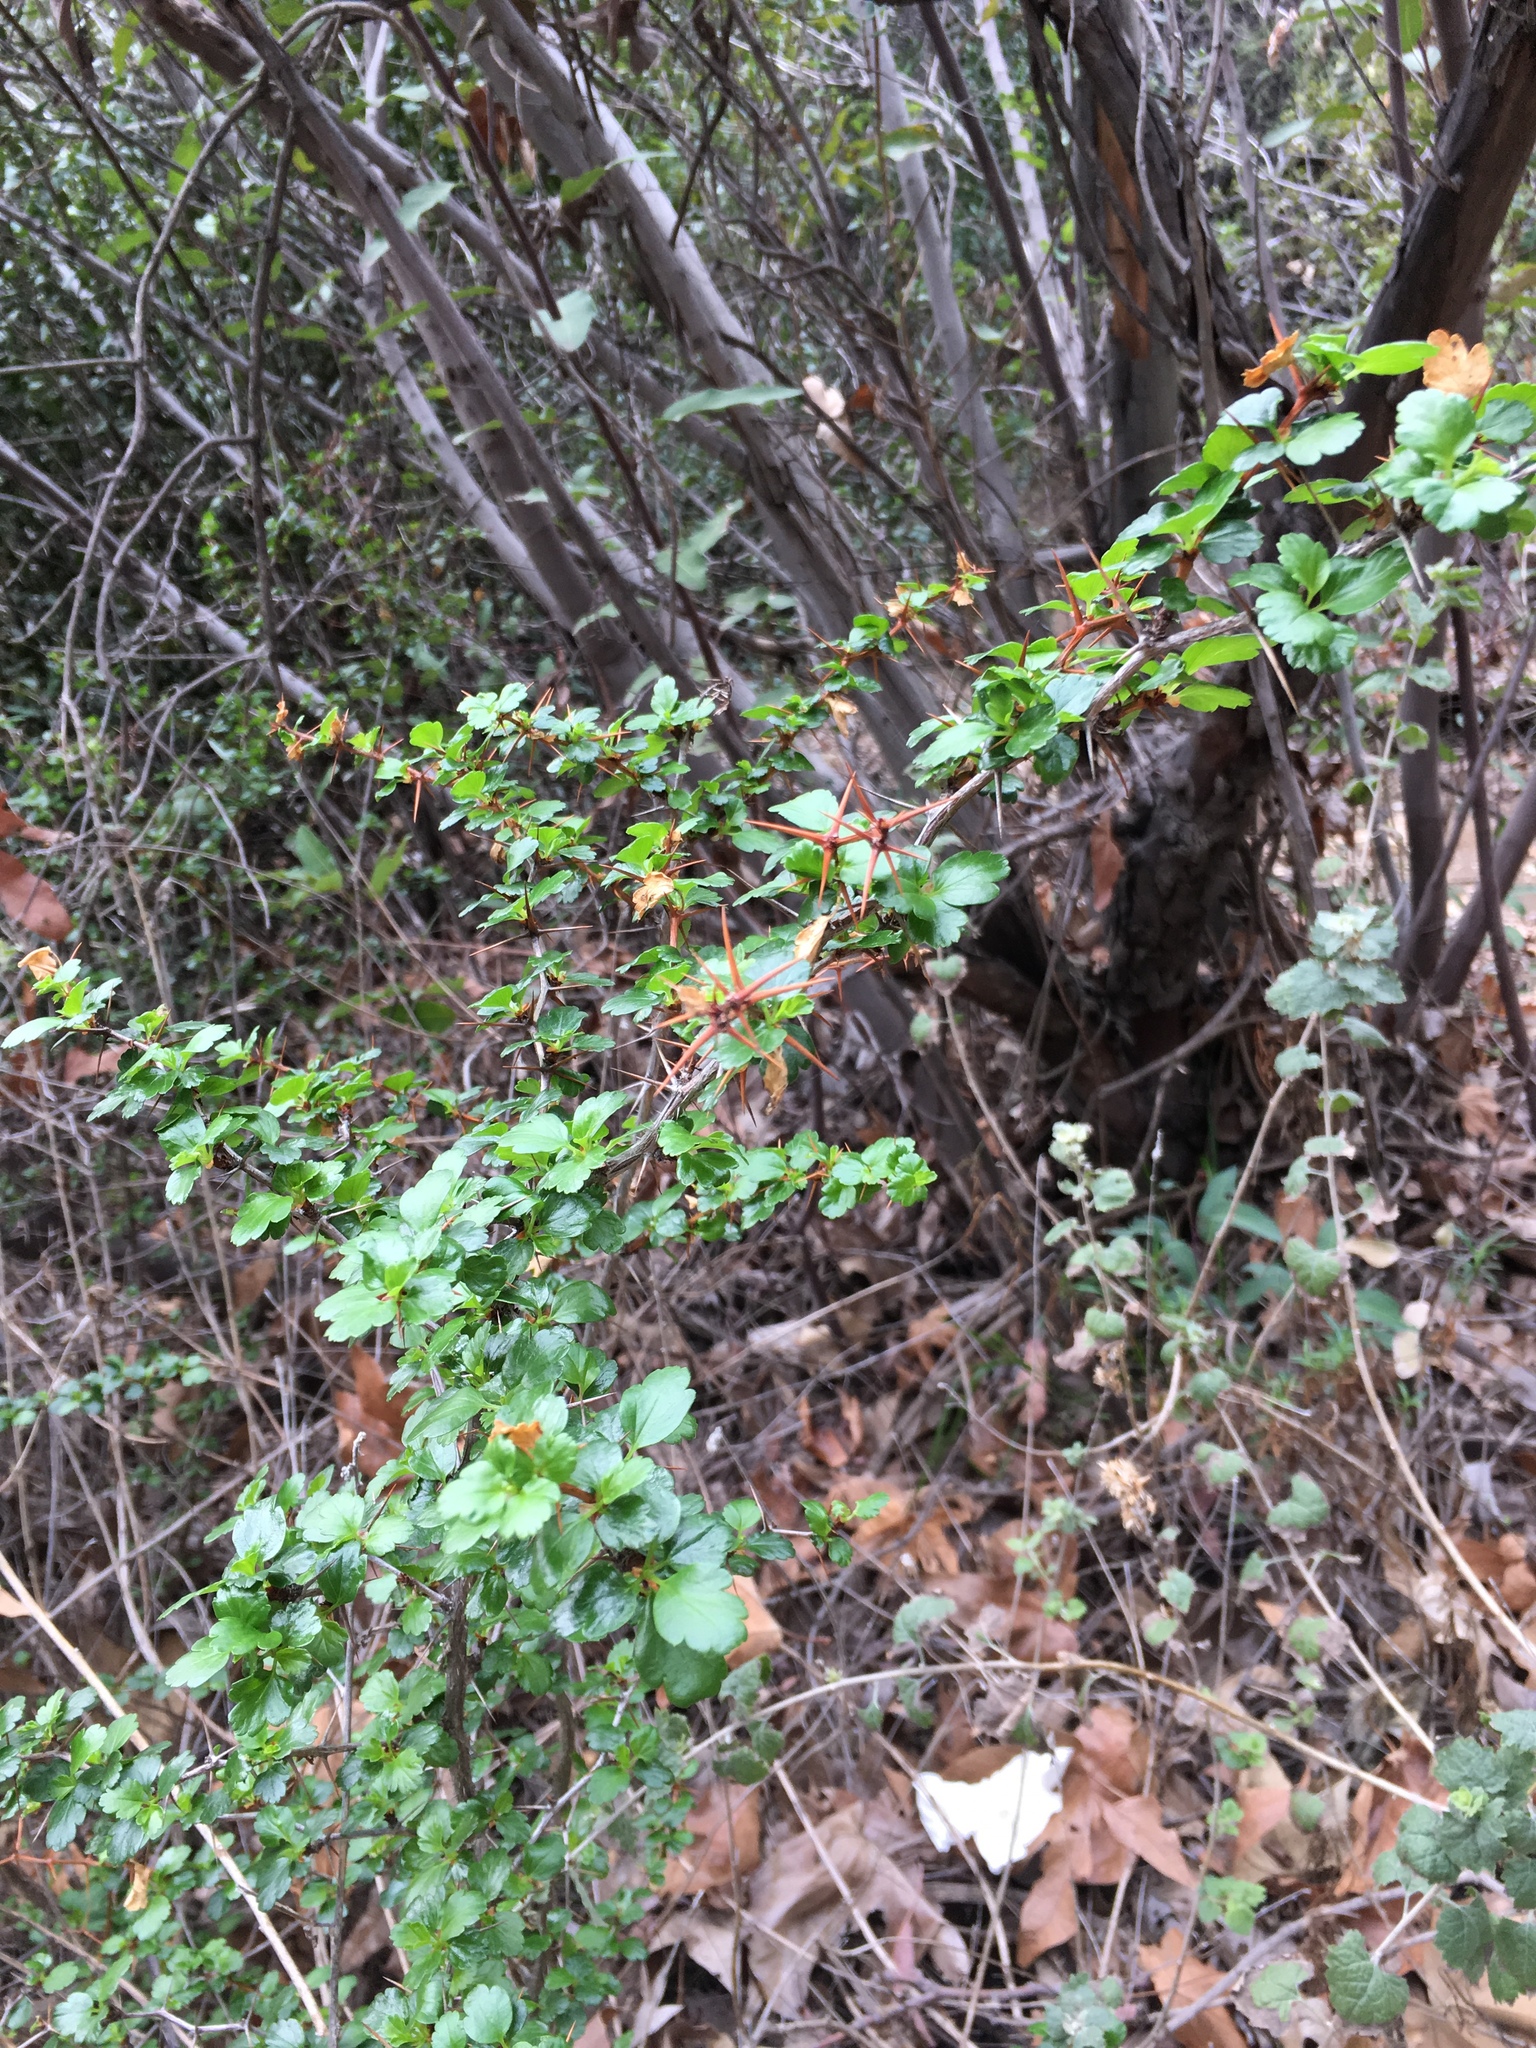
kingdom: Plantae
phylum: Tracheophyta
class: Magnoliopsida
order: Saxifragales
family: Grossulariaceae
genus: Ribes
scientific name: Ribes speciosum
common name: Fuchsia-flower gooseberry
